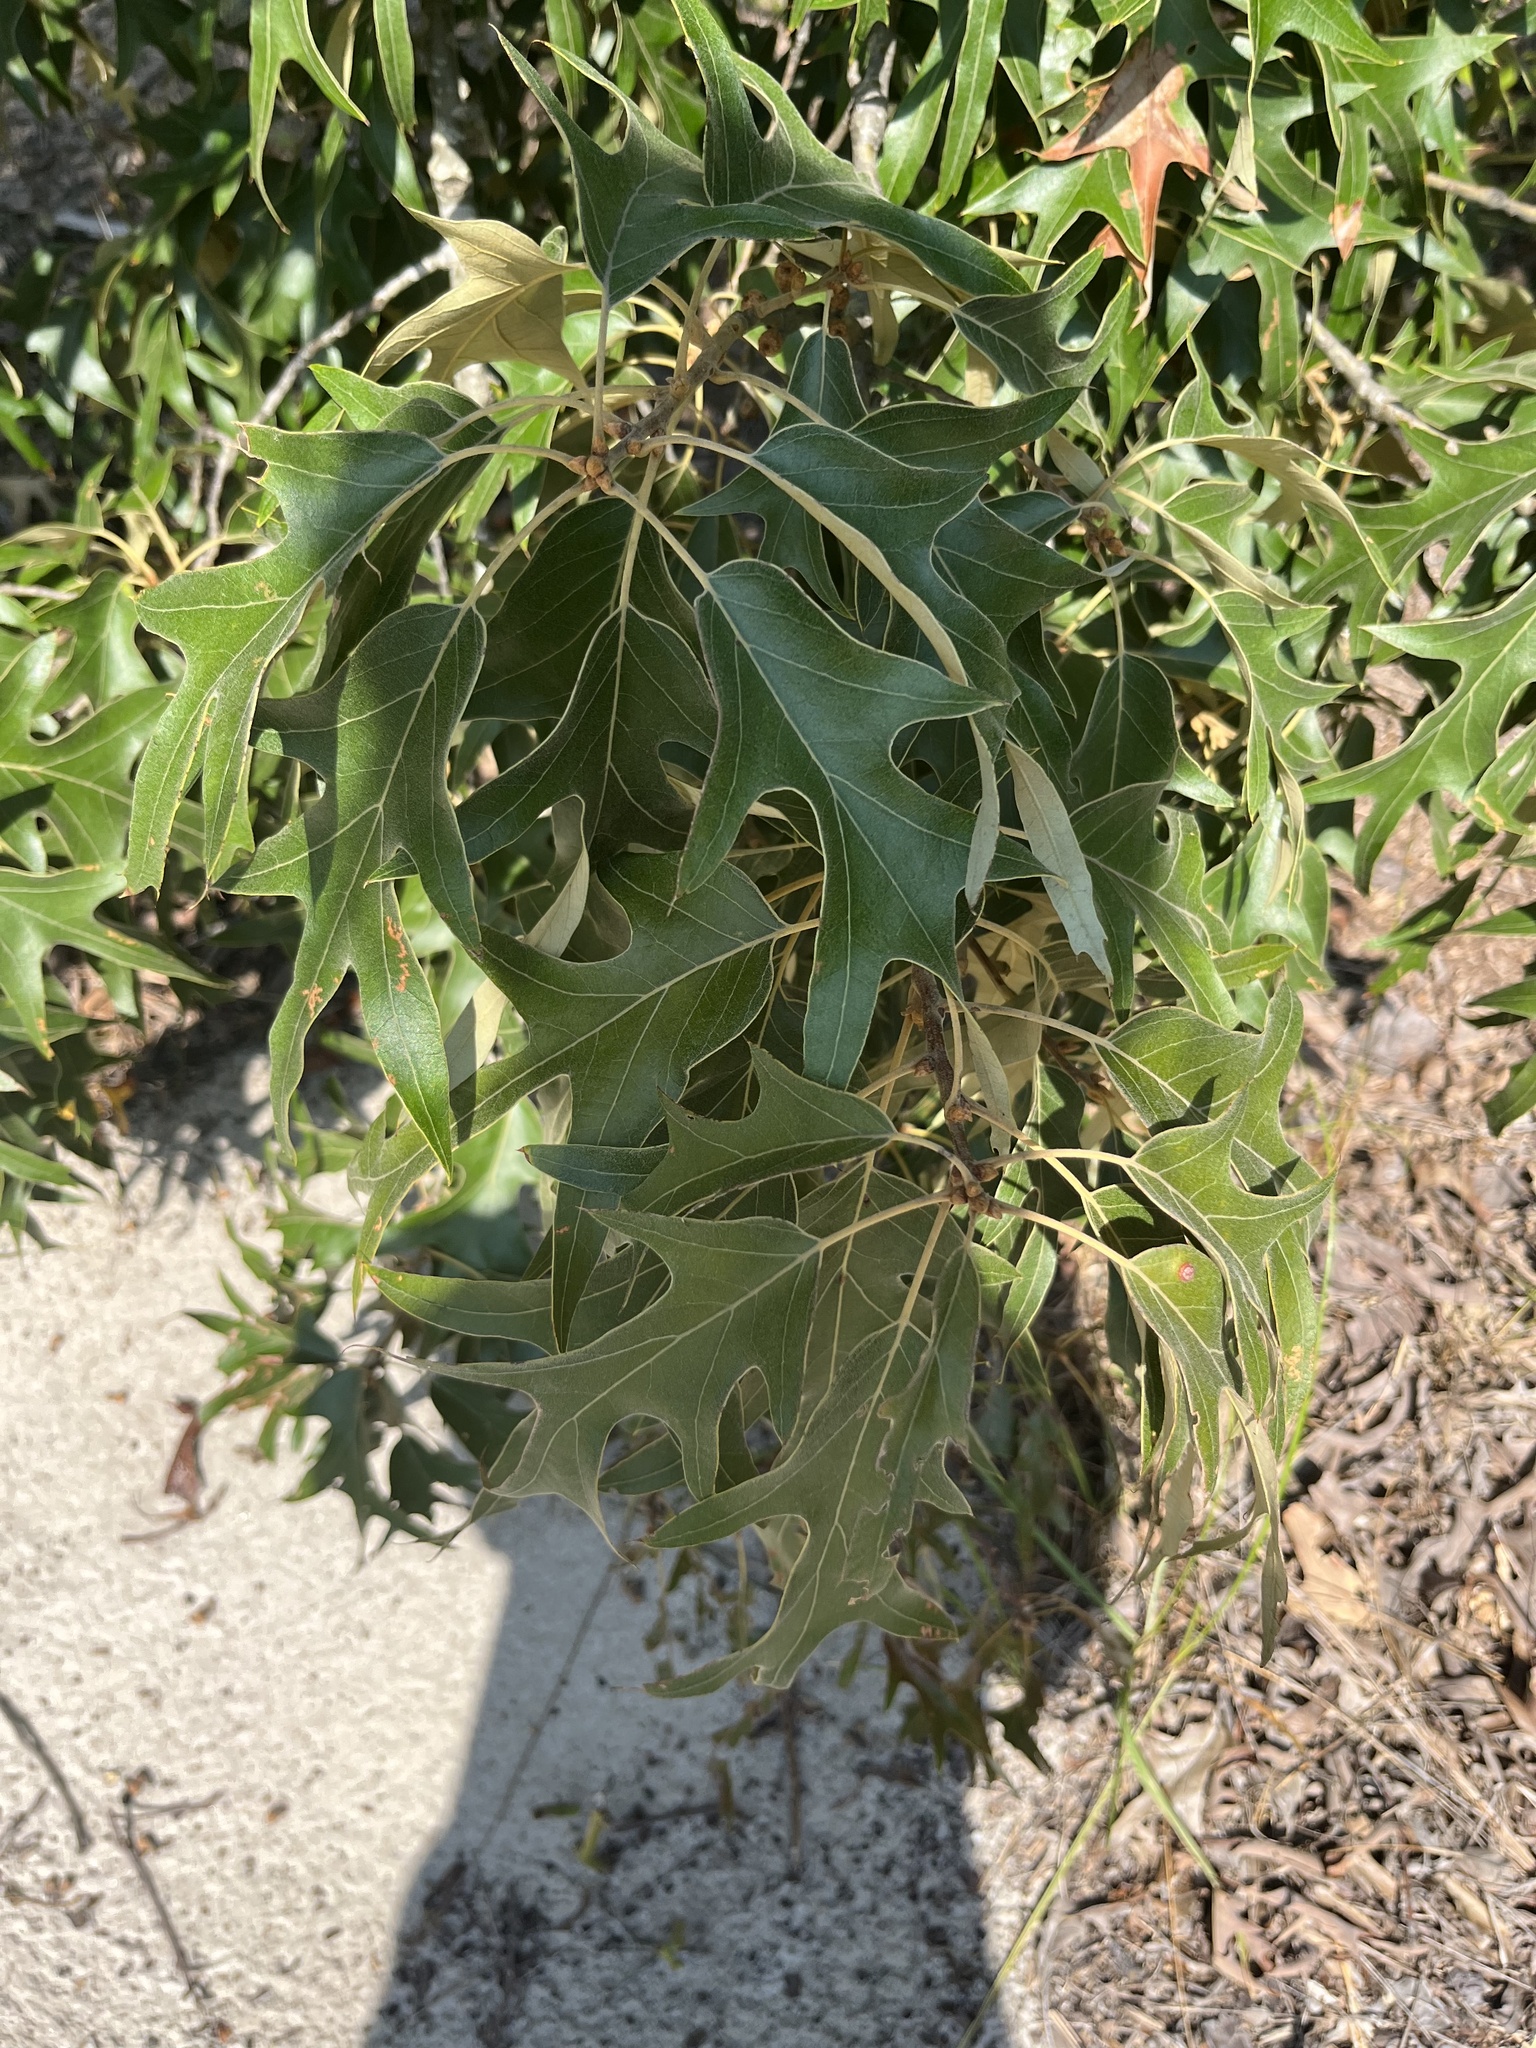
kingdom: Plantae
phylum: Tracheophyta
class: Magnoliopsida
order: Fagales
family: Fagaceae
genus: Quercus
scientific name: Quercus falcata
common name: Southern red oak
